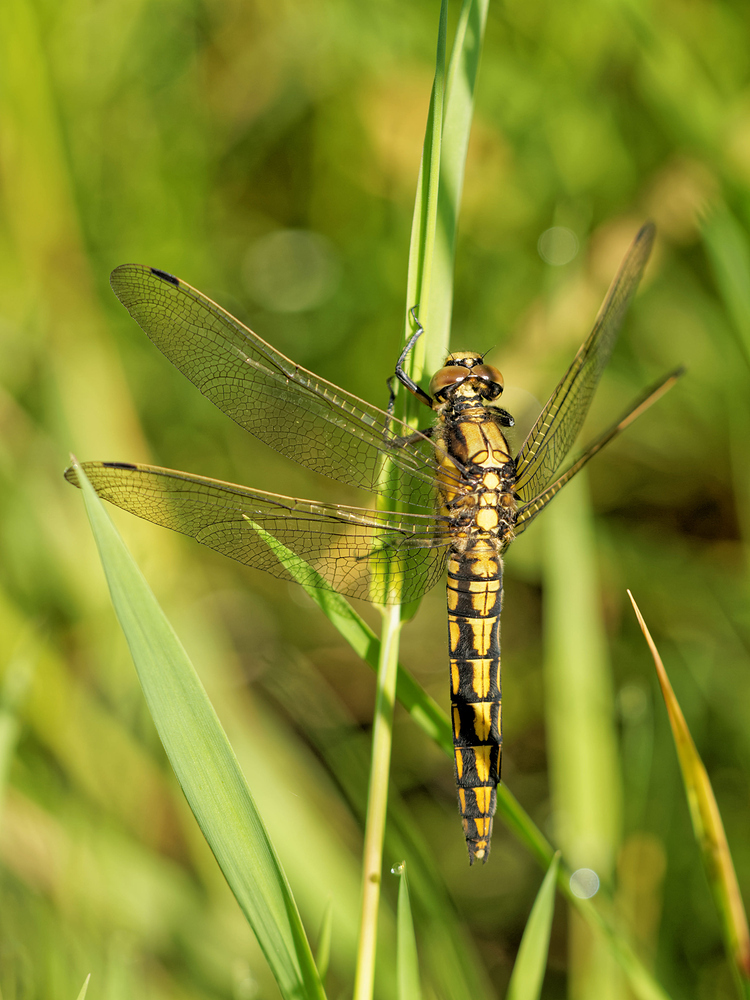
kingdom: Animalia
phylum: Arthropoda
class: Insecta
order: Odonata
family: Libellulidae
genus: Orthetrum
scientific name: Orthetrum cancellatum
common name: Black-tailed skimmer
